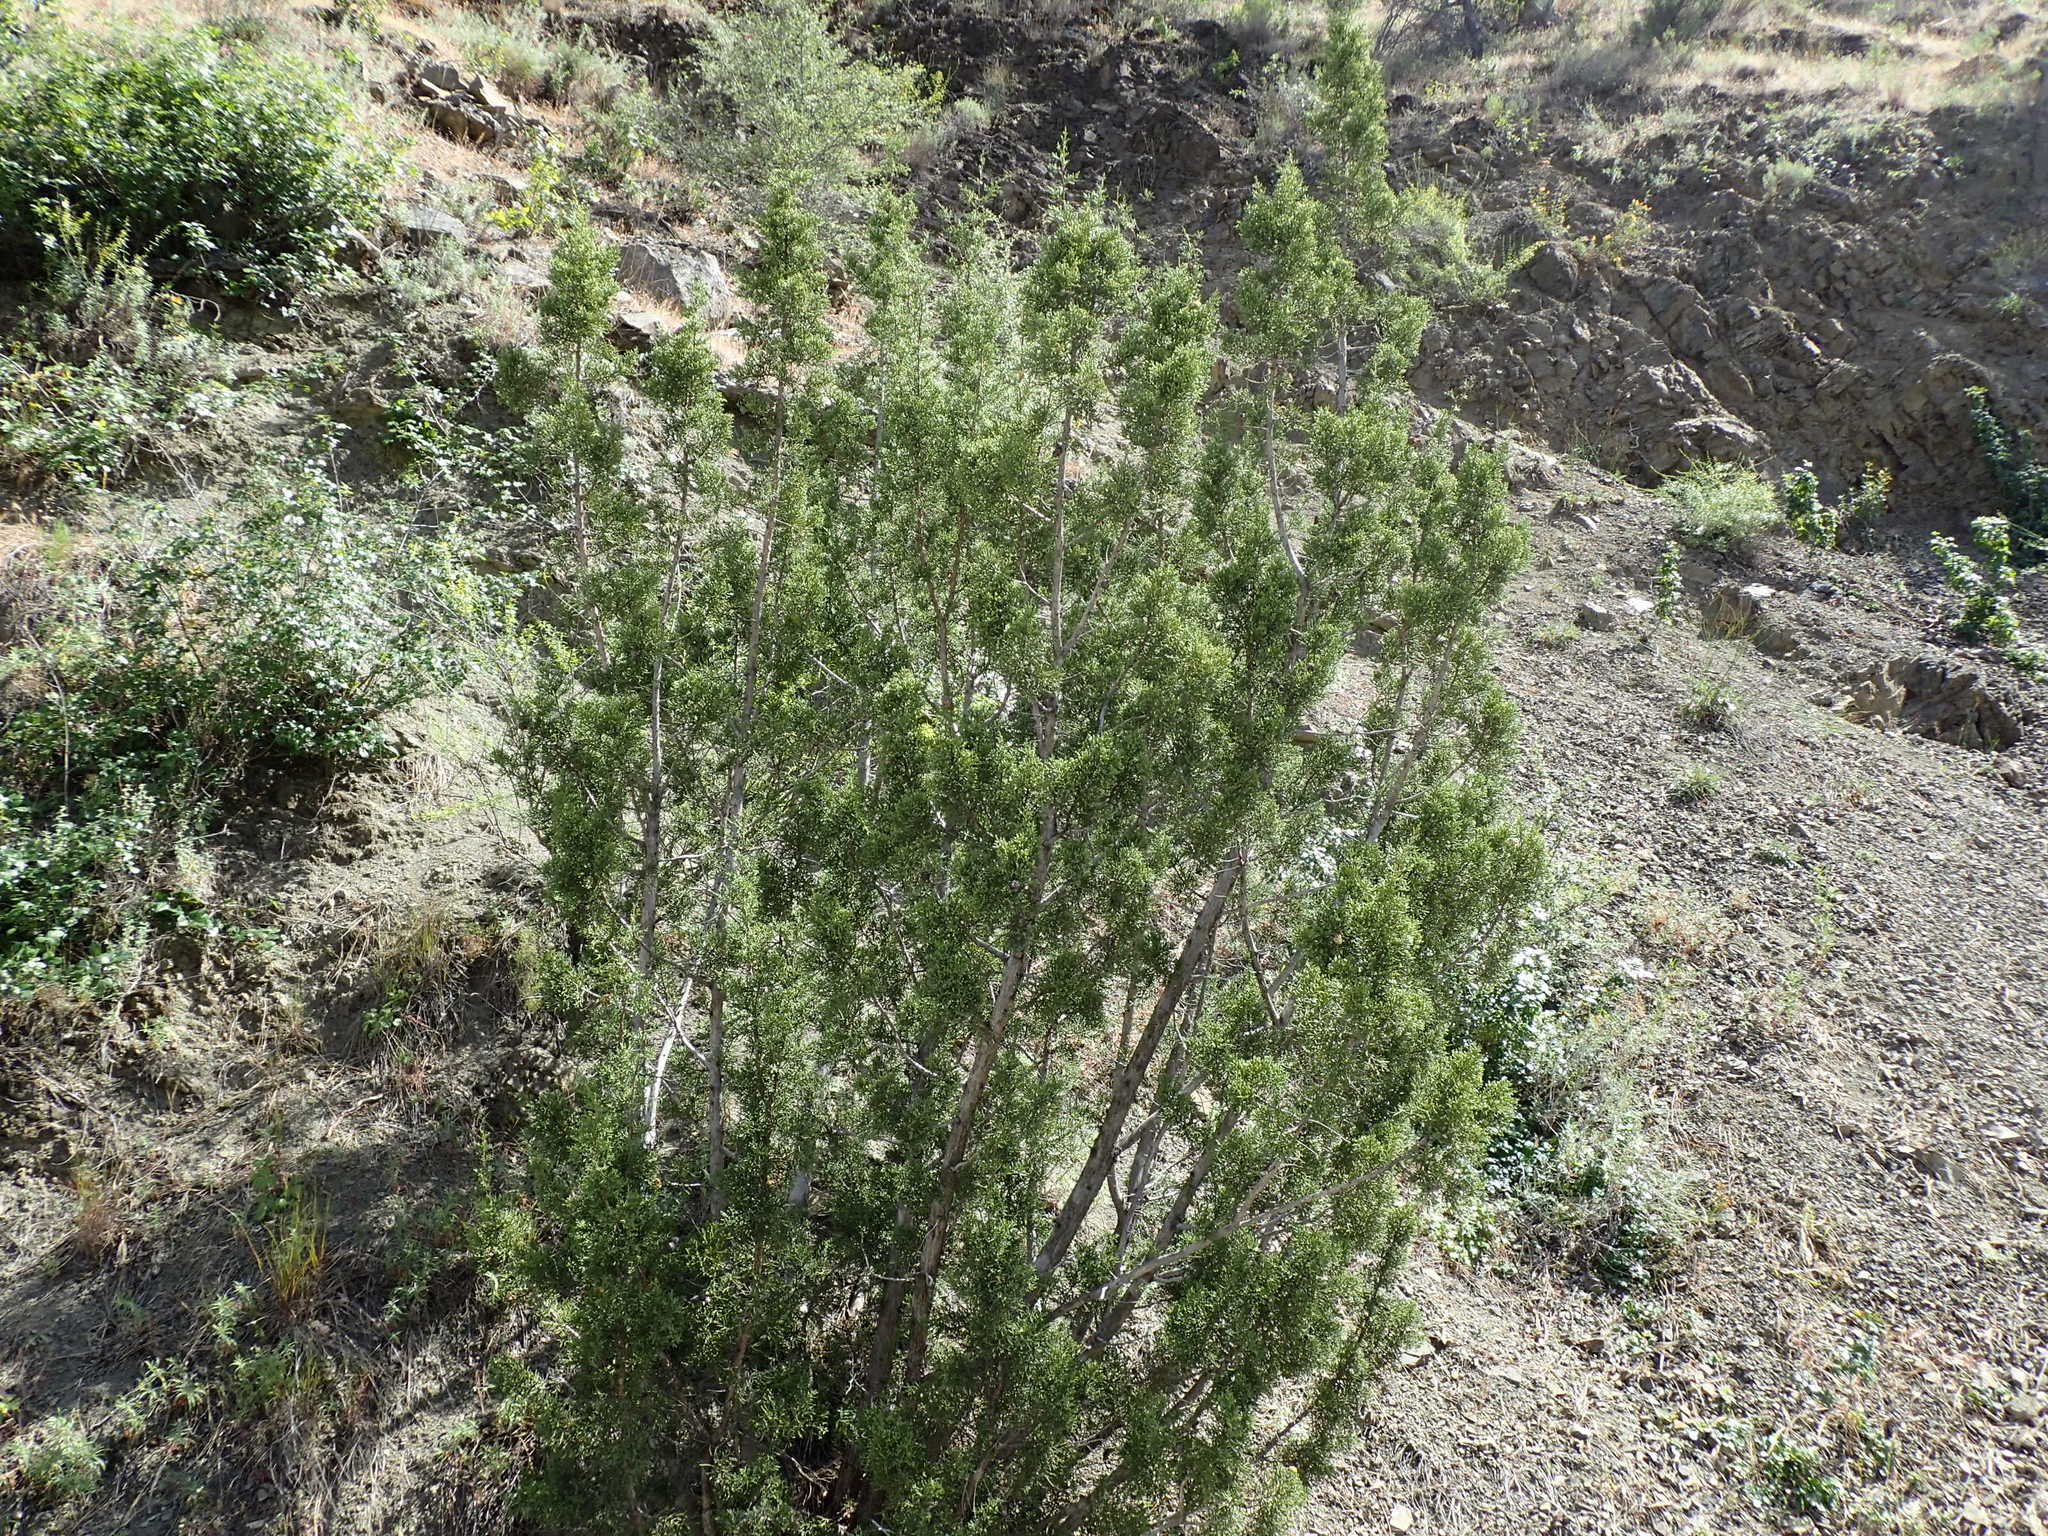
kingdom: Plantae
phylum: Tracheophyta
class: Pinopsida
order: Pinales
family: Cupressaceae
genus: Juniperus
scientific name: Juniperus californica
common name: California juniper
